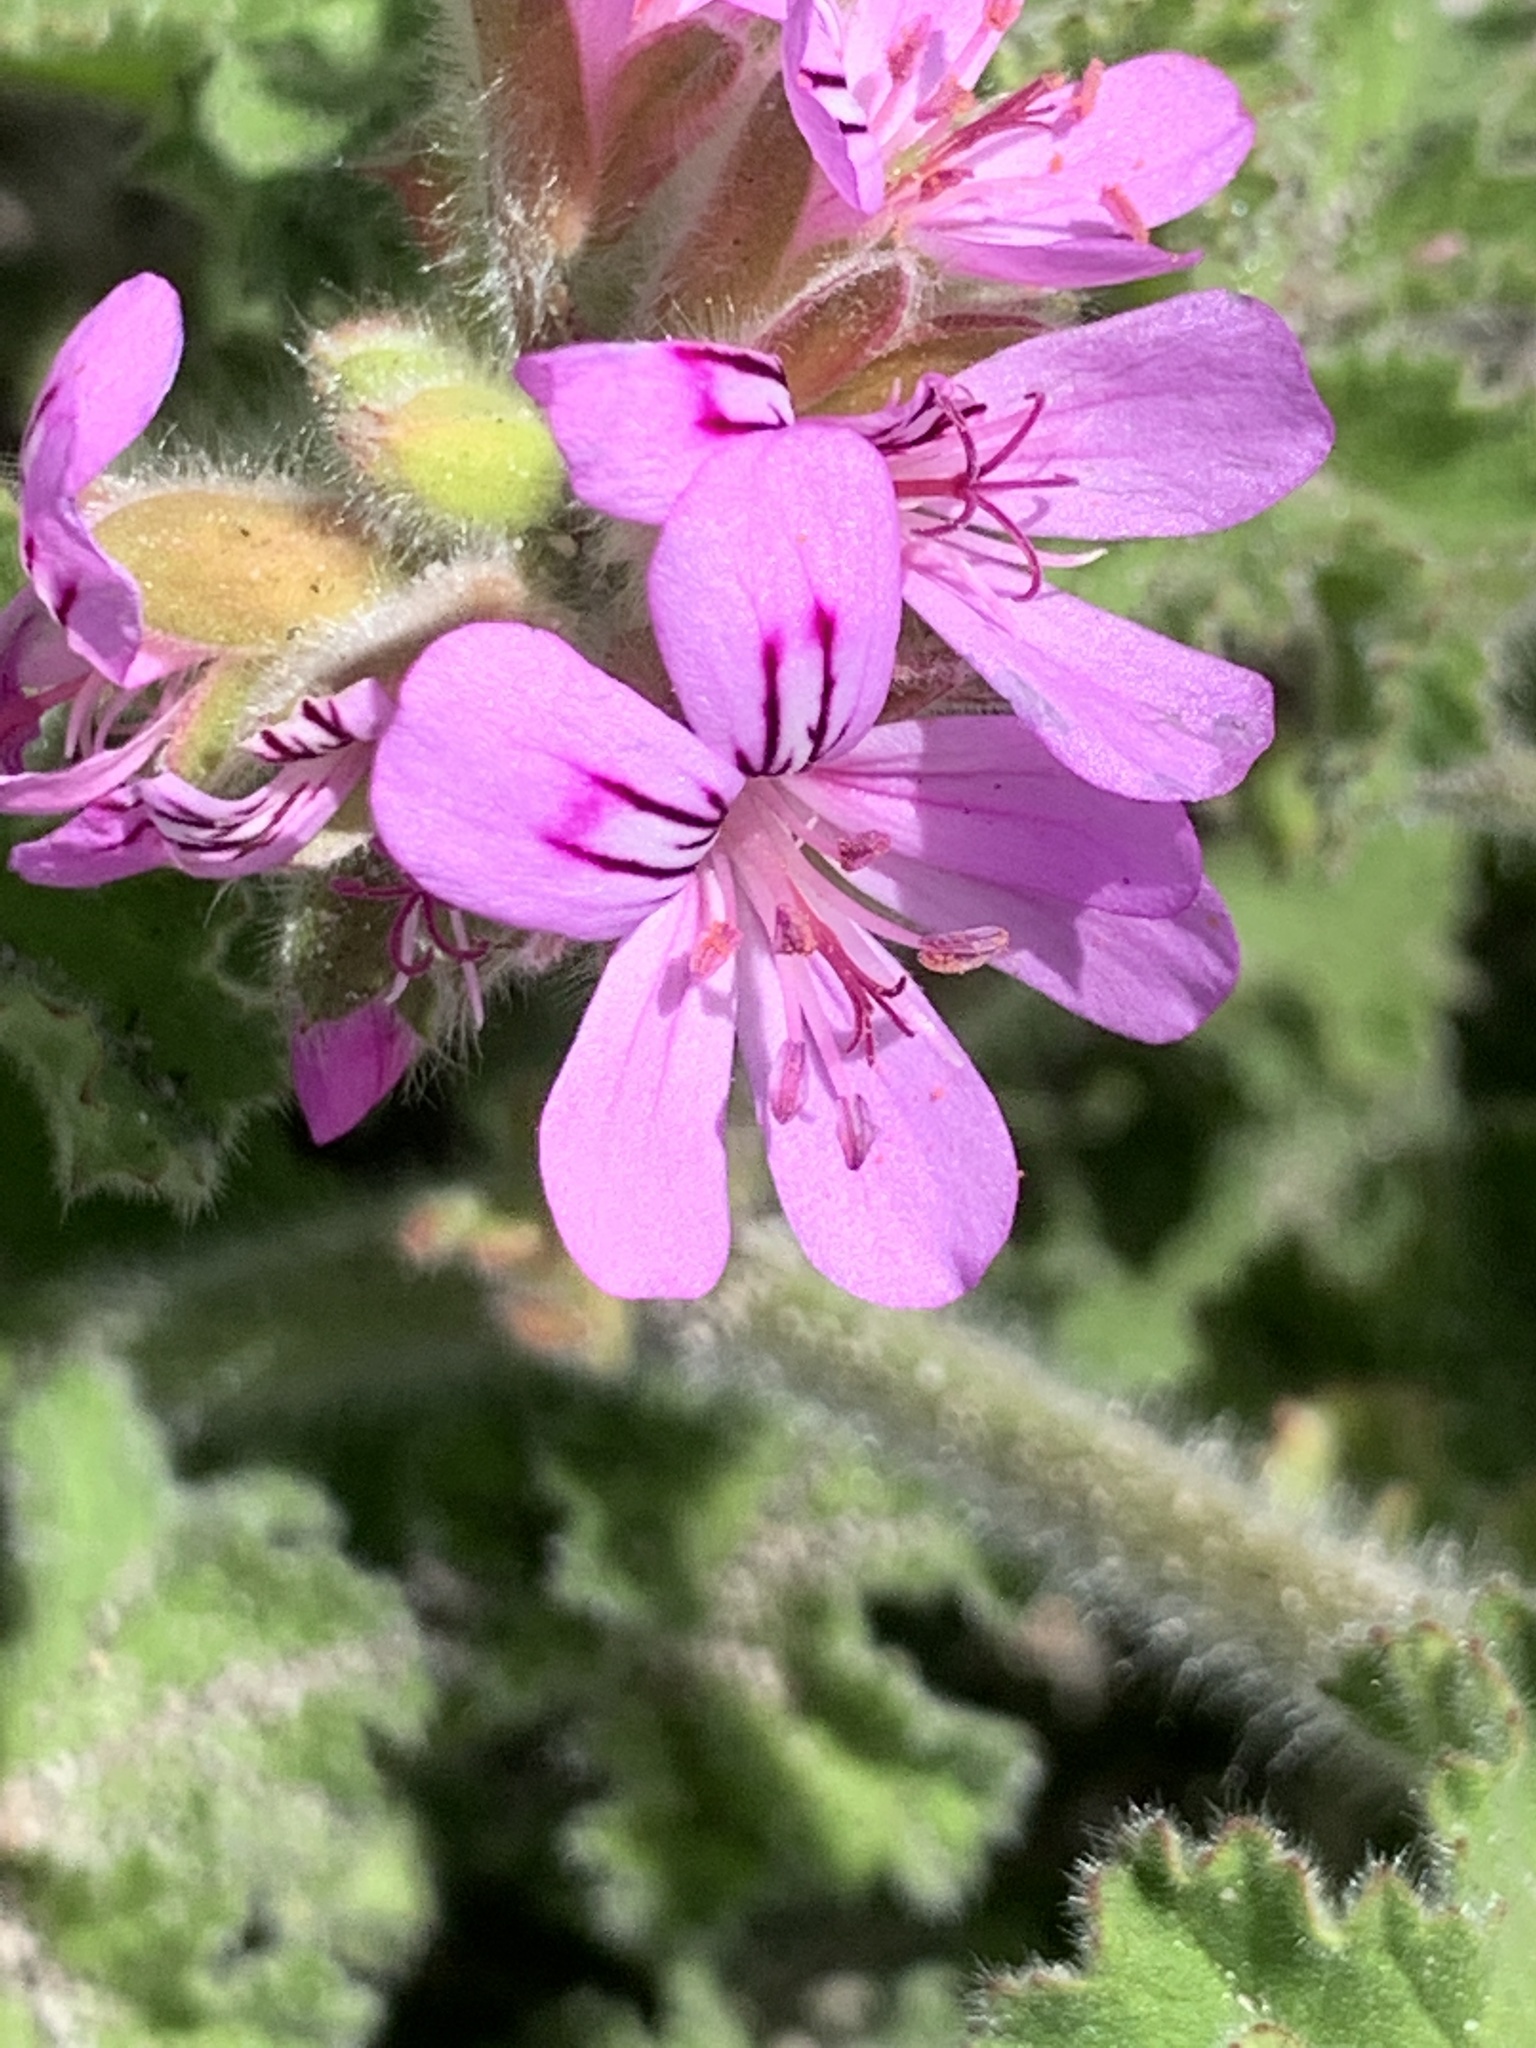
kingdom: Plantae
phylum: Tracheophyta
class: Magnoliopsida
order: Geraniales
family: Geraniaceae
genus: Pelargonium
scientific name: Pelargonium capitatum
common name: Rose scented geranium
